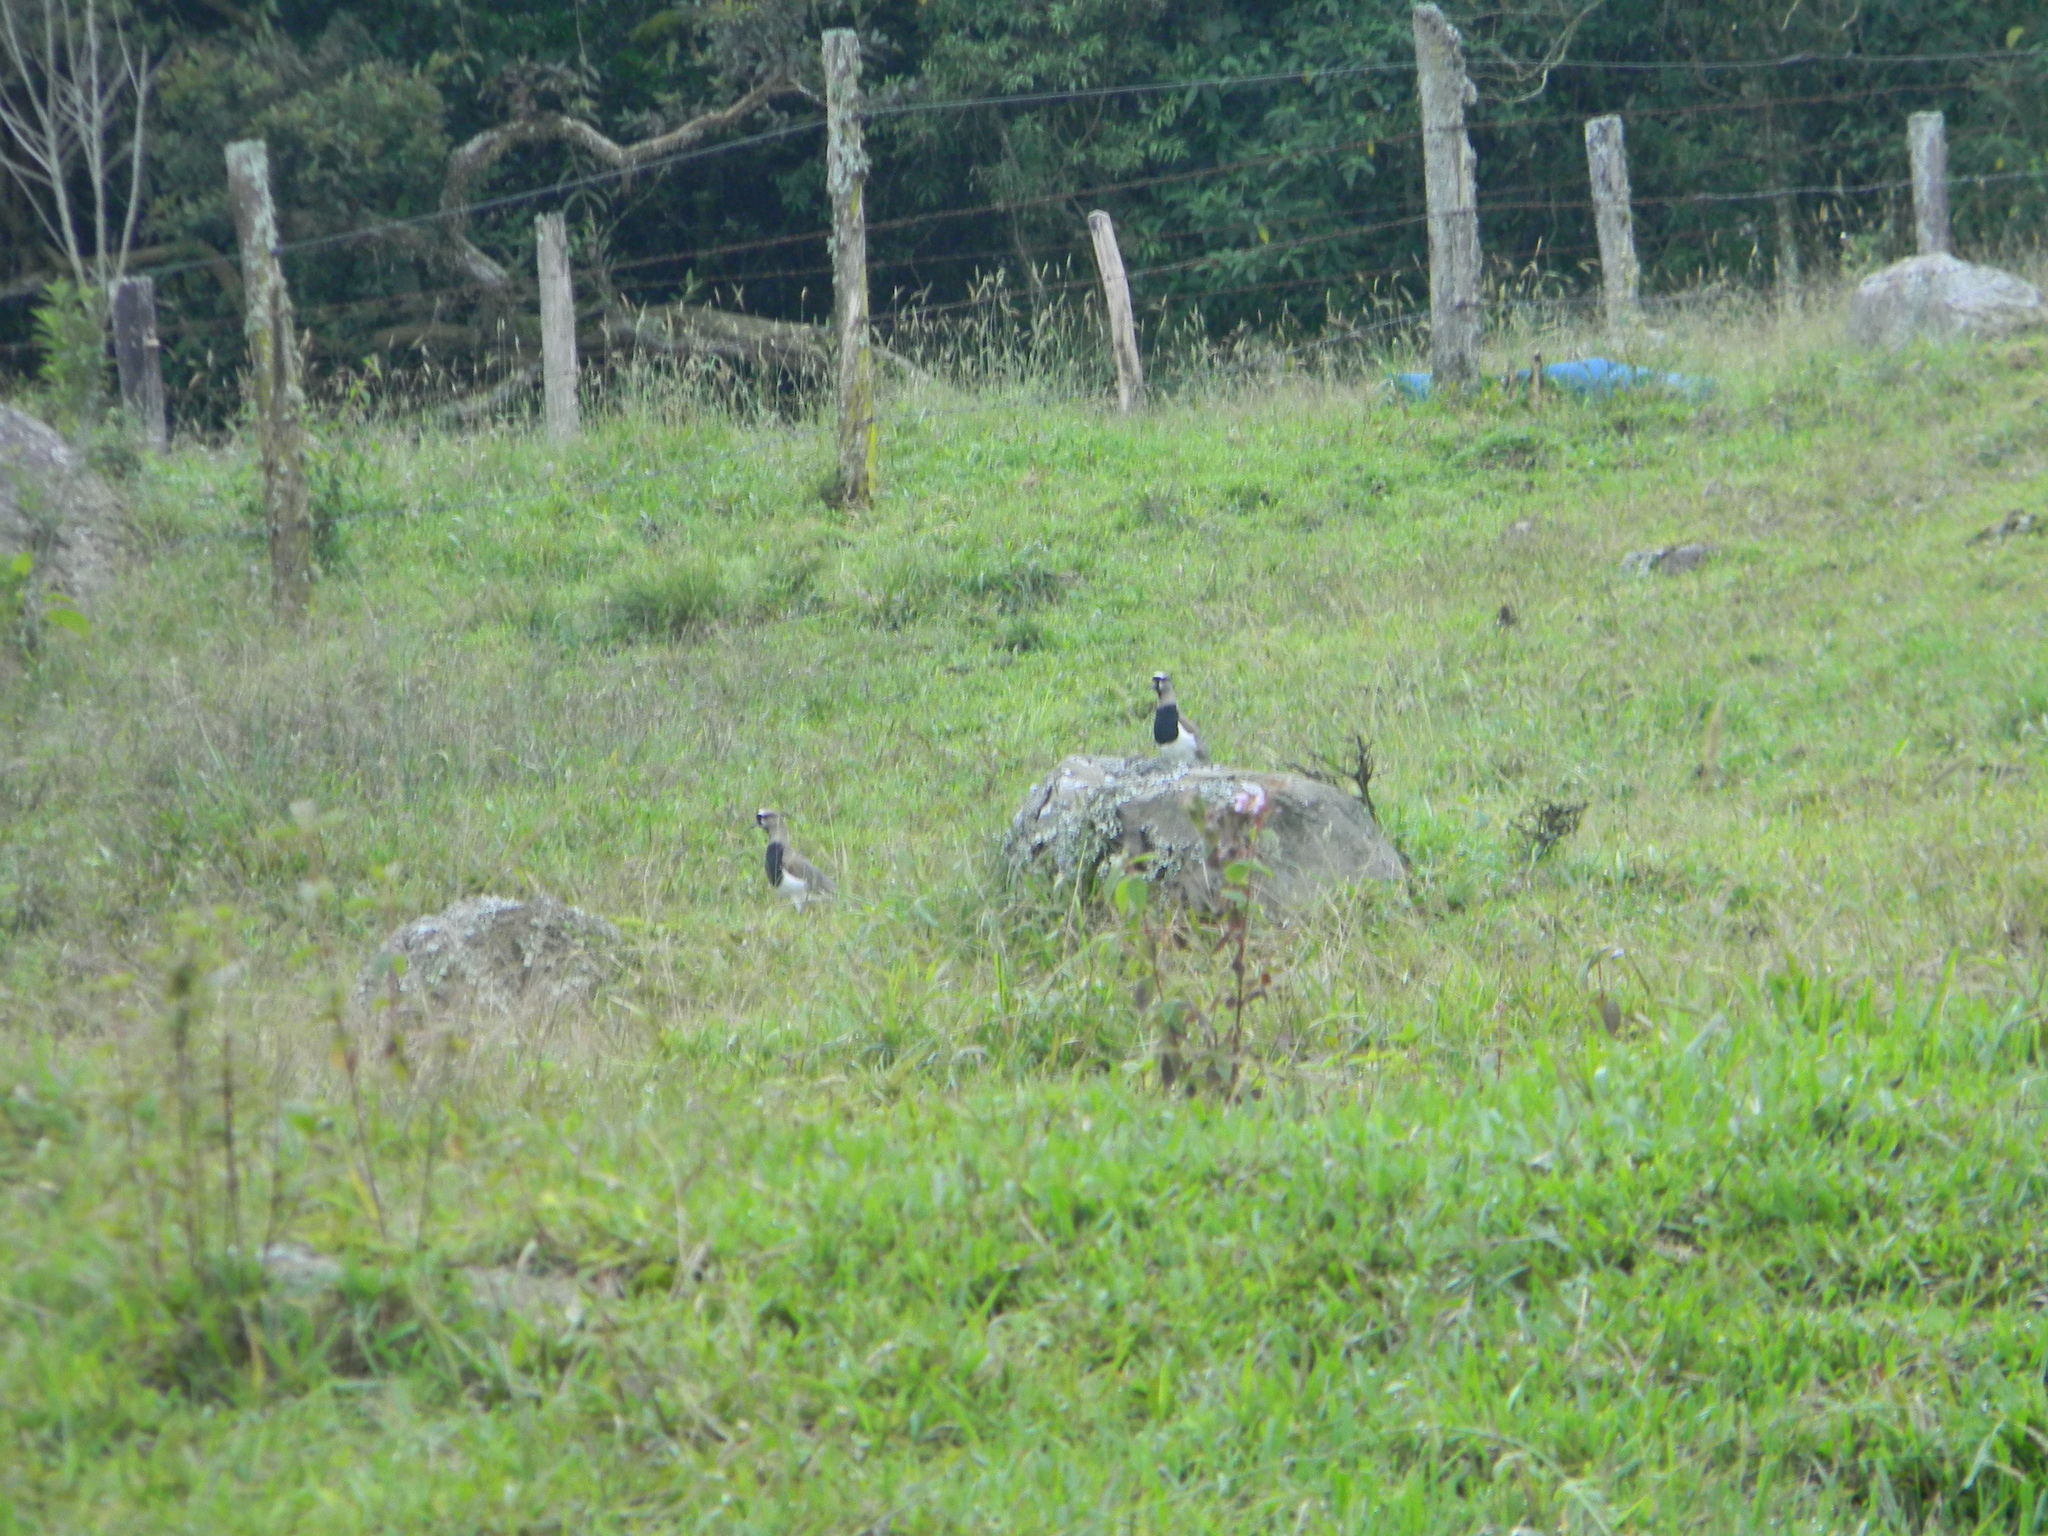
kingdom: Animalia
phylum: Chordata
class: Aves
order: Charadriiformes
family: Charadriidae
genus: Vanellus
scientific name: Vanellus chilensis
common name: Southern lapwing
